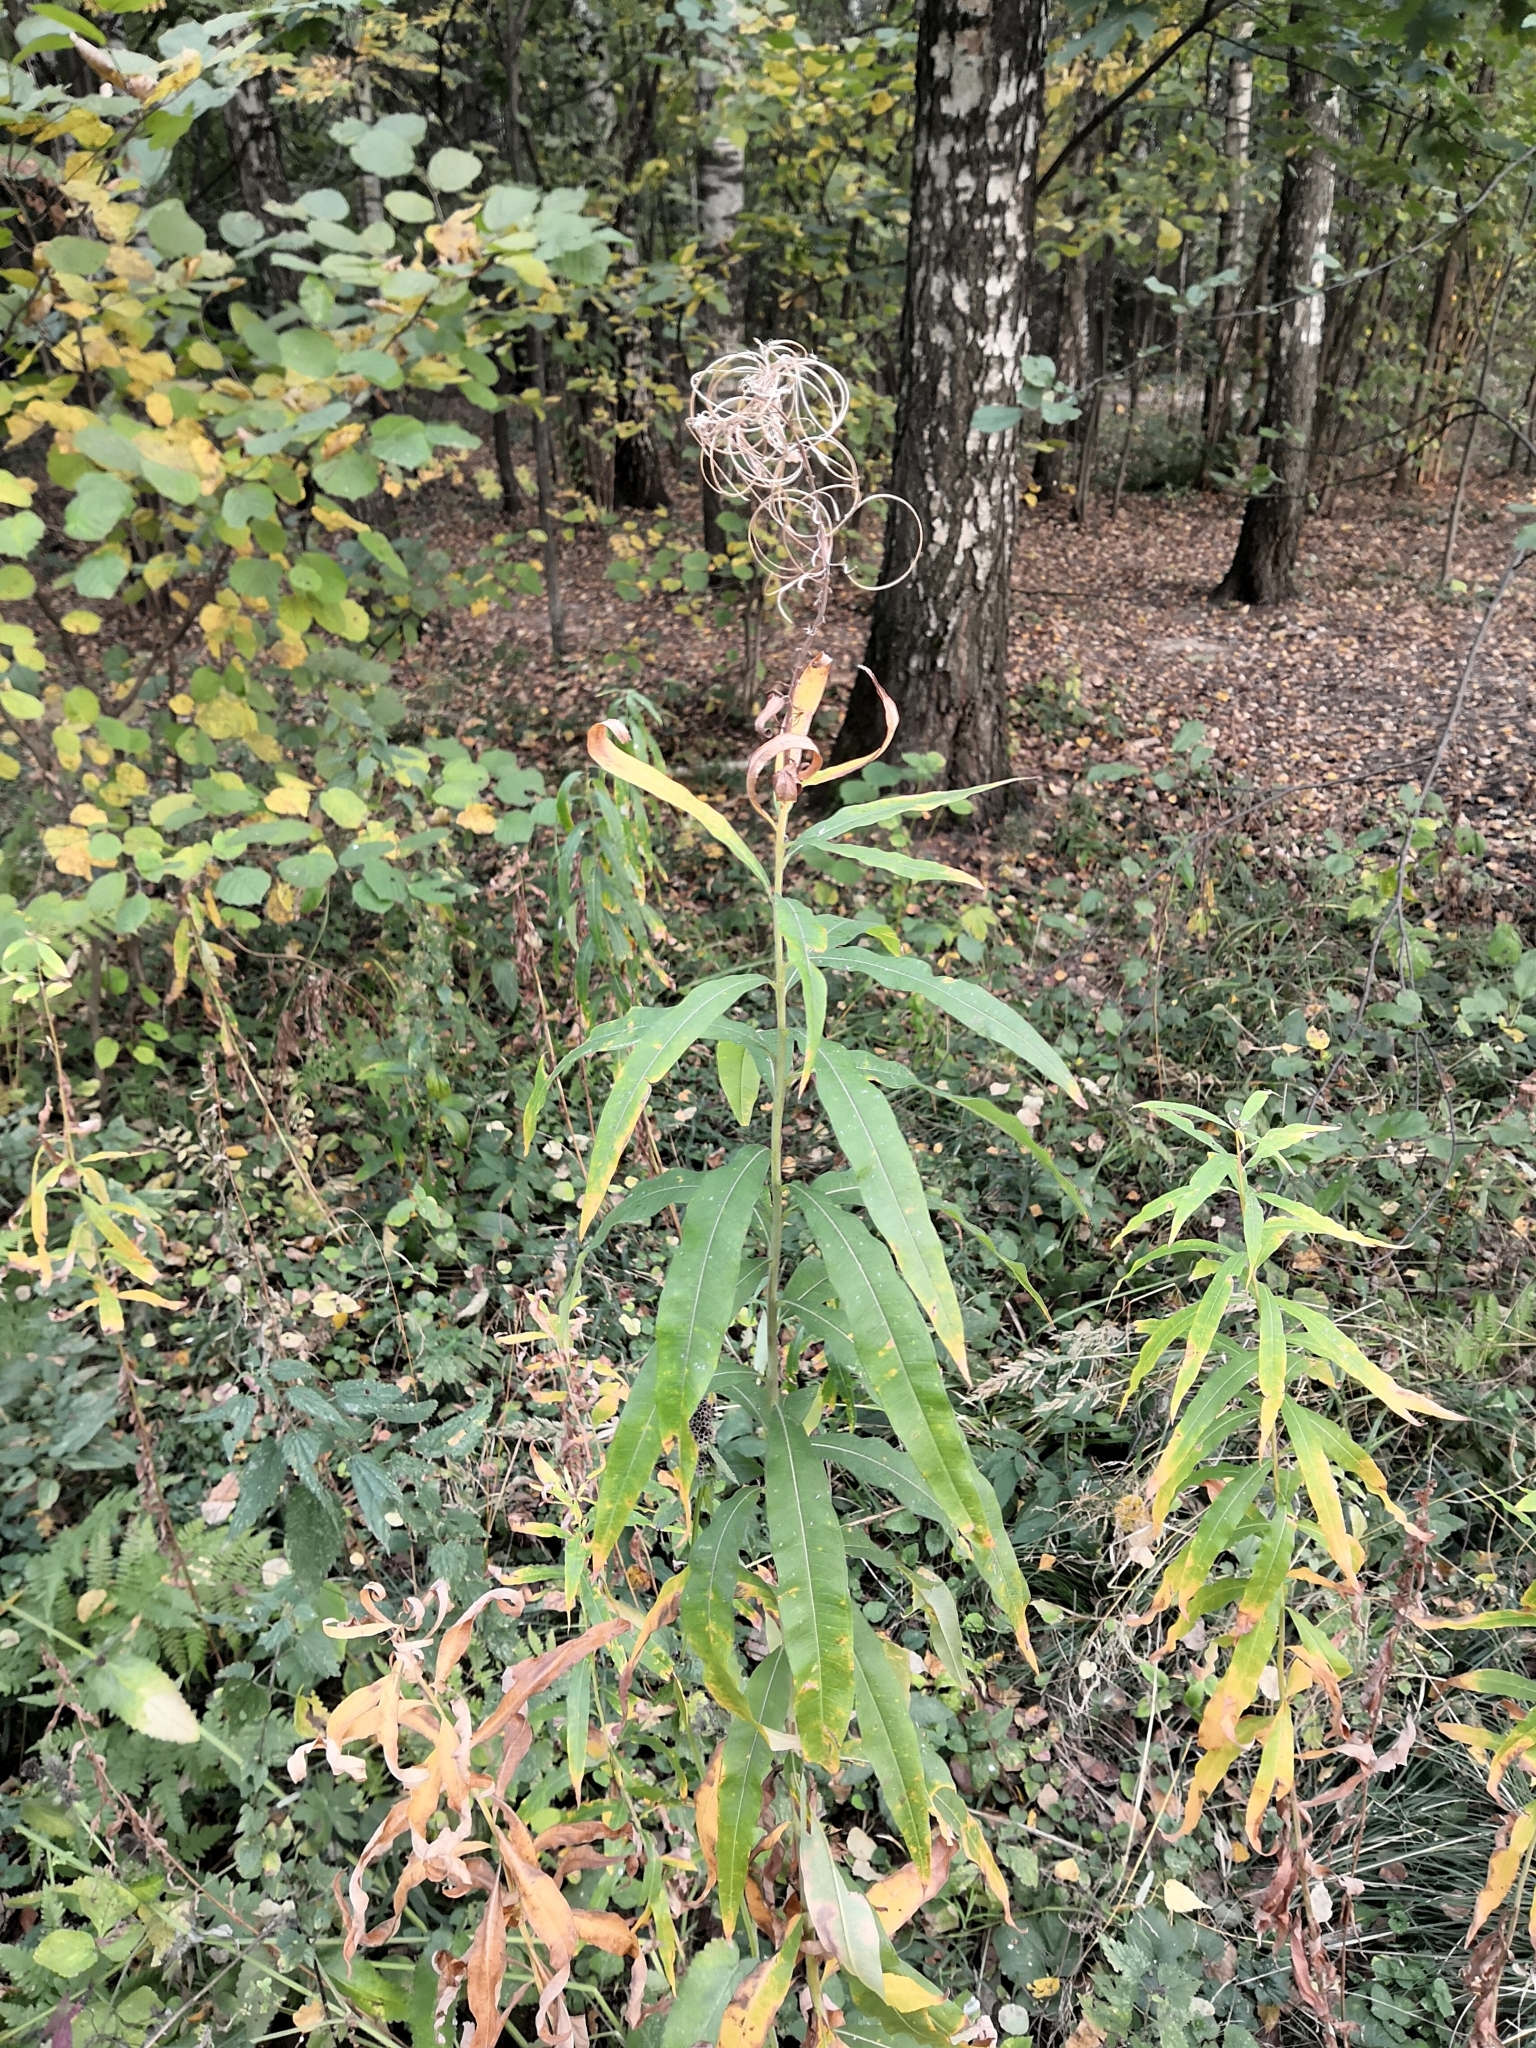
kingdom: Plantae
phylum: Tracheophyta
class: Magnoliopsida
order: Myrtales
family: Onagraceae
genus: Chamaenerion
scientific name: Chamaenerion angustifolium
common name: Fireweed
